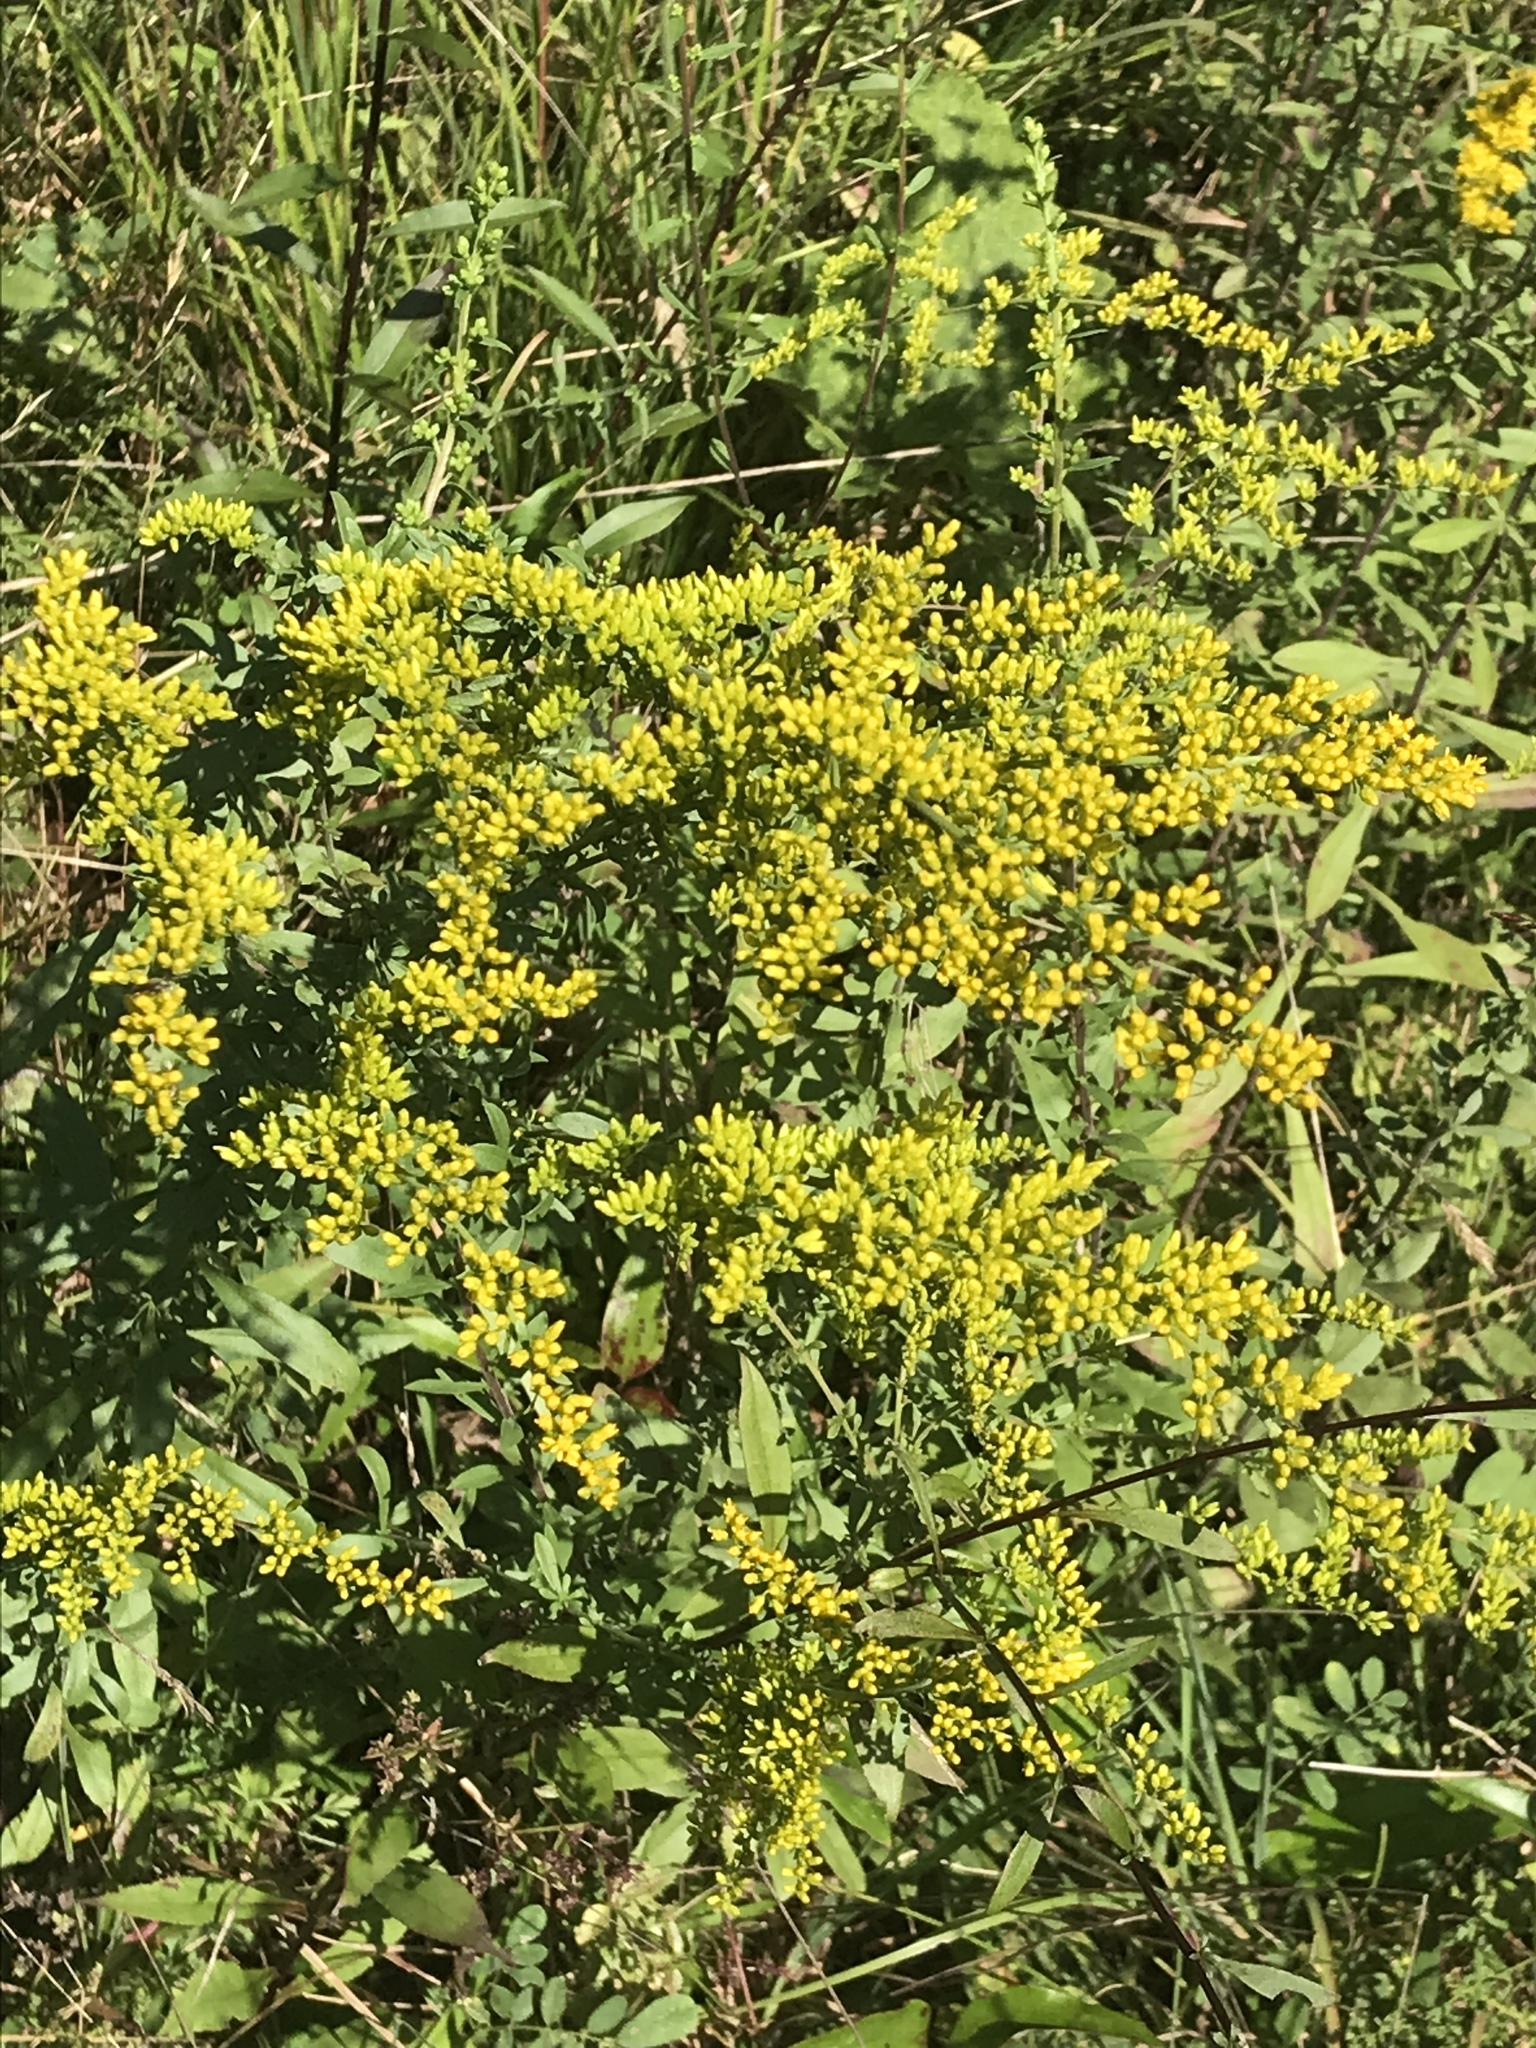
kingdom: Plantae
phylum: Tracheophyta
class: Magnoliopsida
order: Asterales
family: Asteraceae
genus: Solidago
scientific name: Solidago nemoralis
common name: Grey goldenrod
